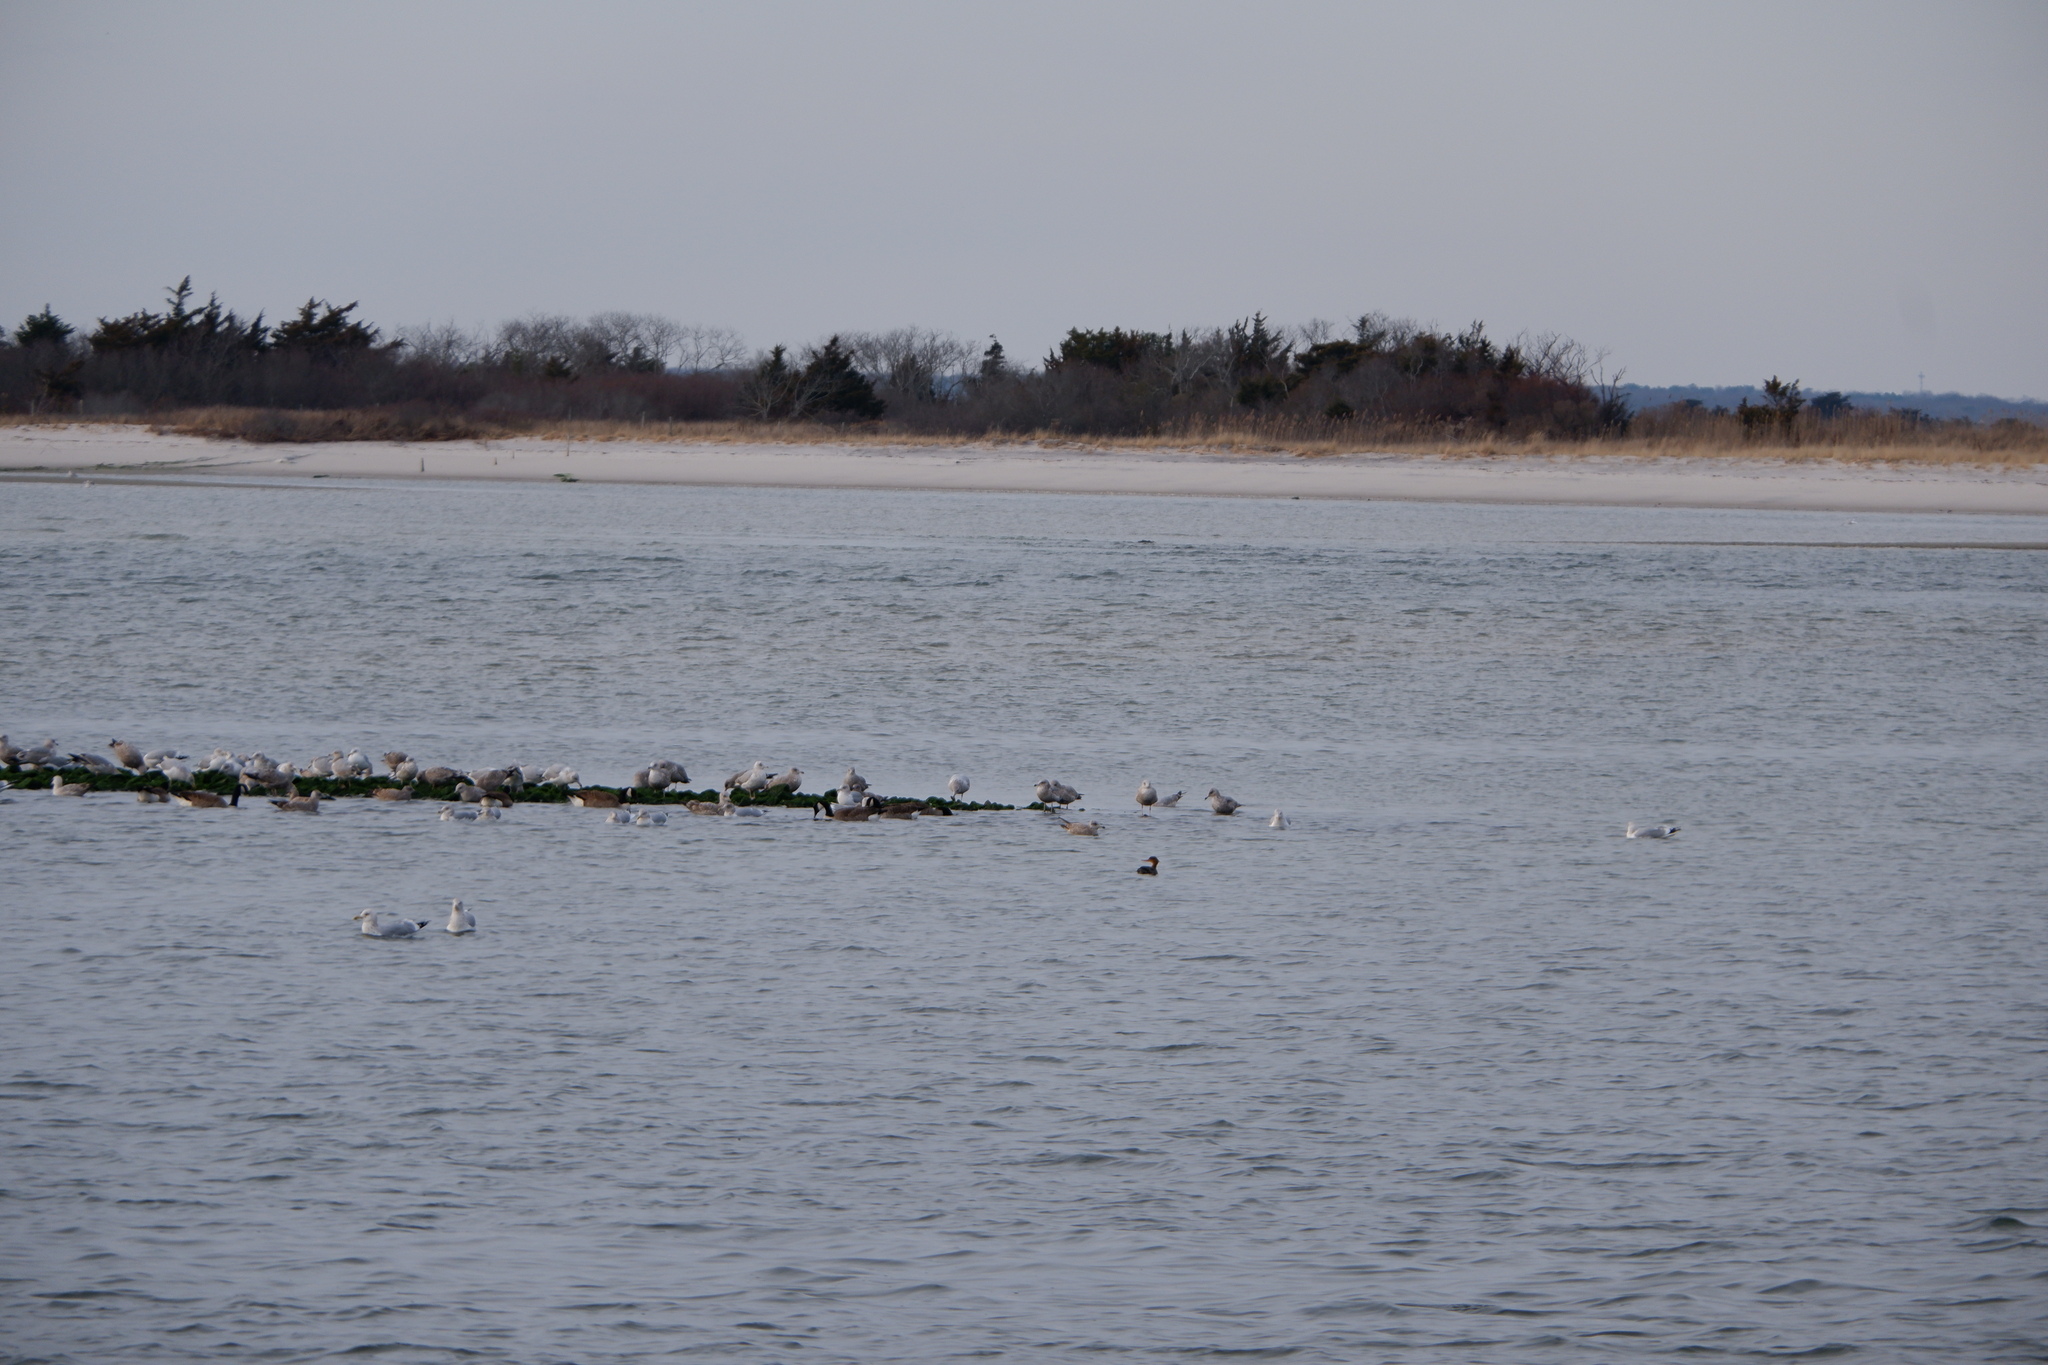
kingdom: Animalia
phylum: Chordata
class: Aves
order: Anseriformes
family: Anatidae
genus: Mergus
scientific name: Mergus serrator
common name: Red-breasted merganser
